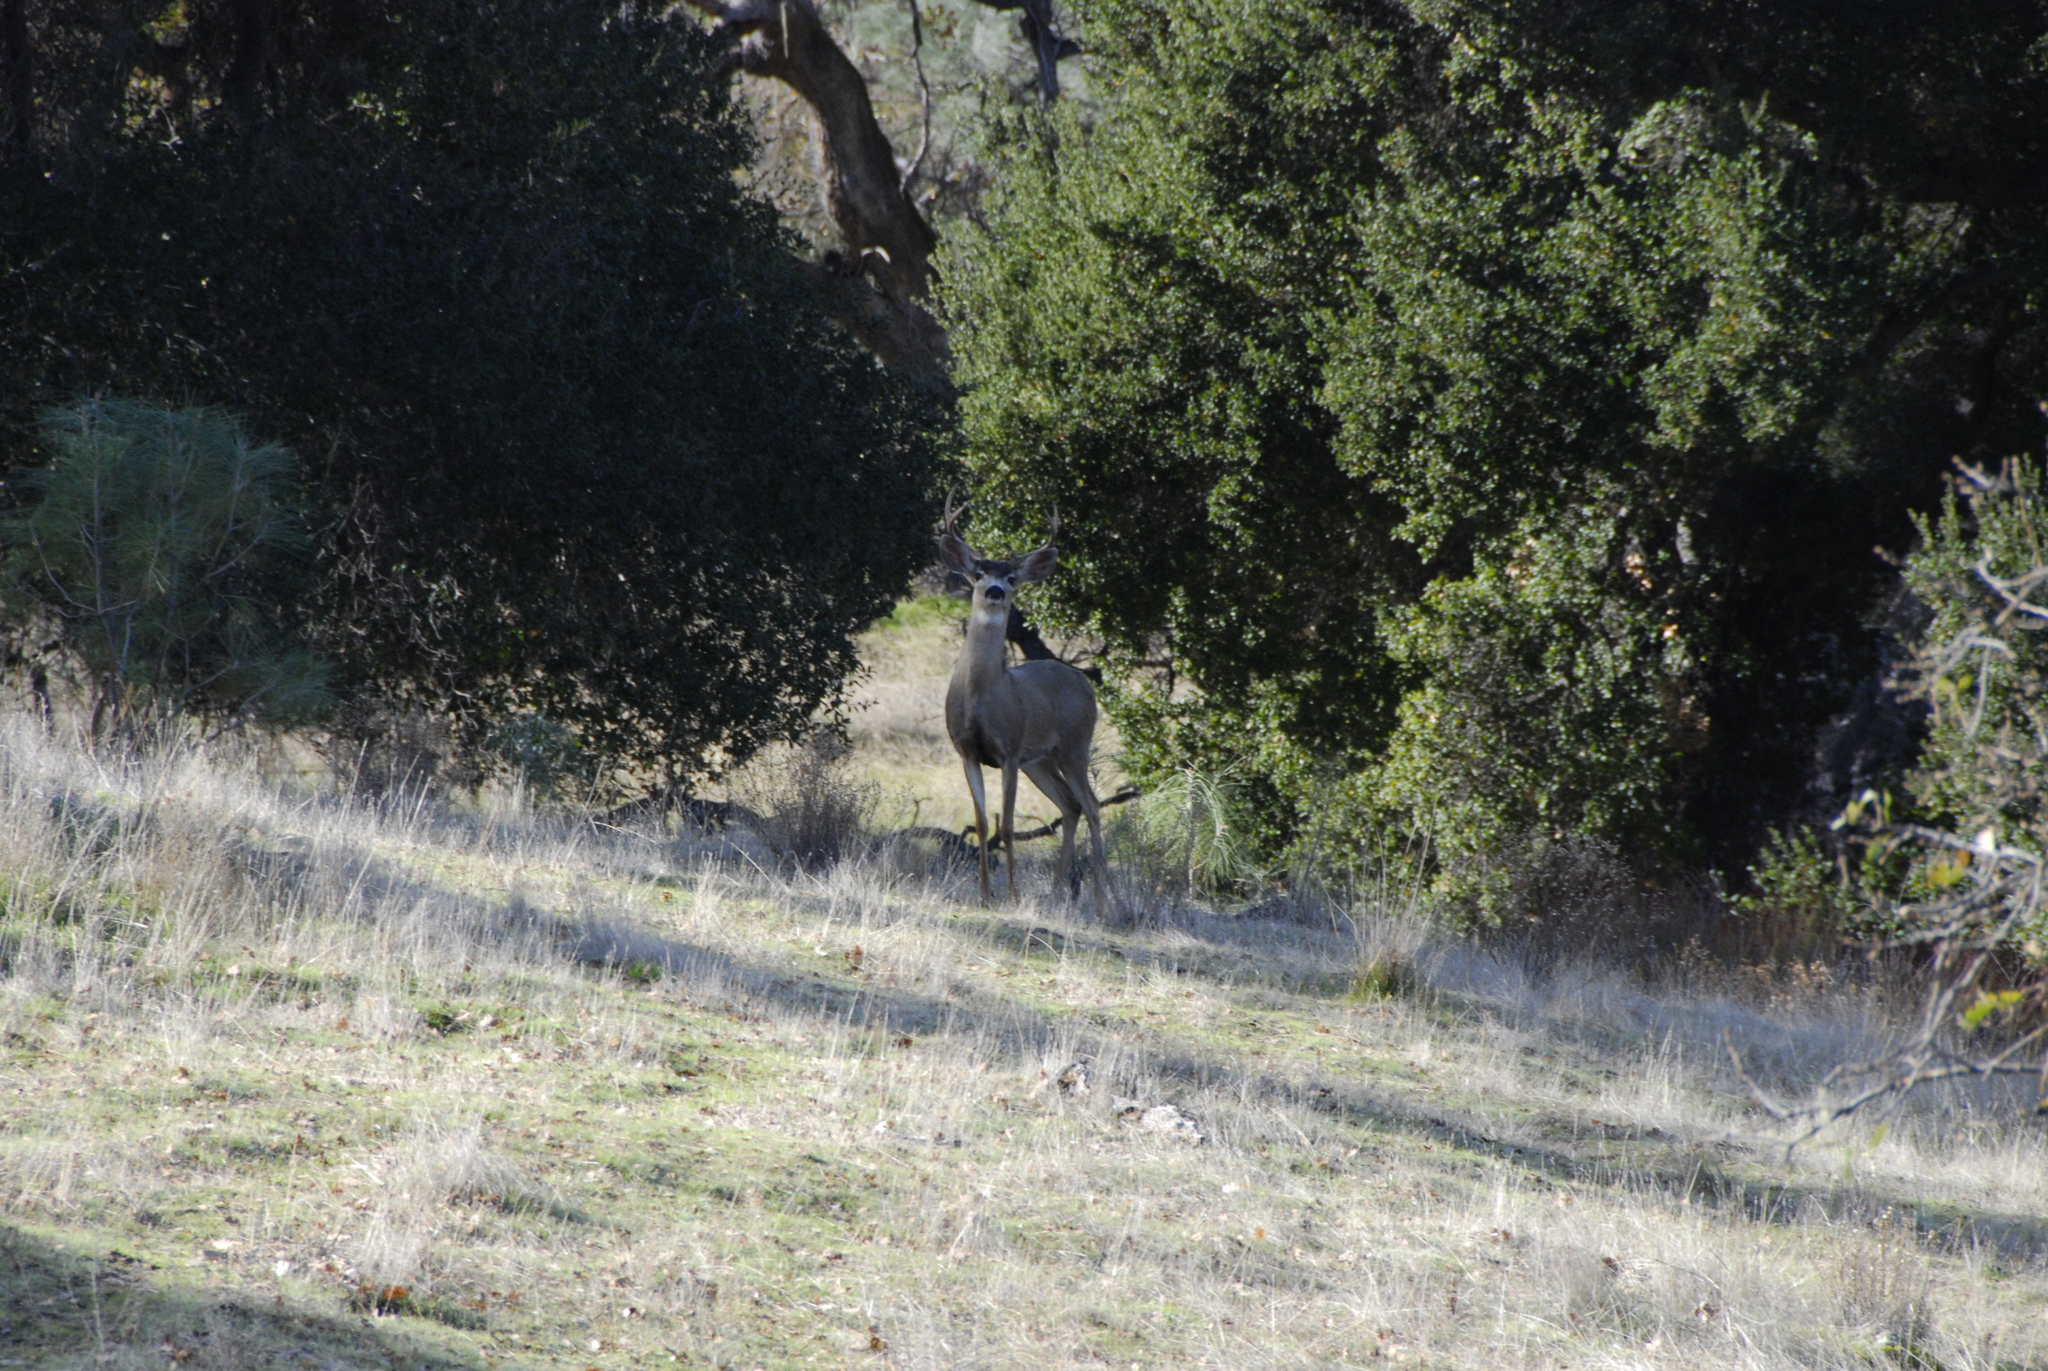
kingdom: Animalia
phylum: Chordata
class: Mammalia
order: Artiodactyla
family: Cervidae
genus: Odocoileus
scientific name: Odocoileus hemionus
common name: Mule deer
